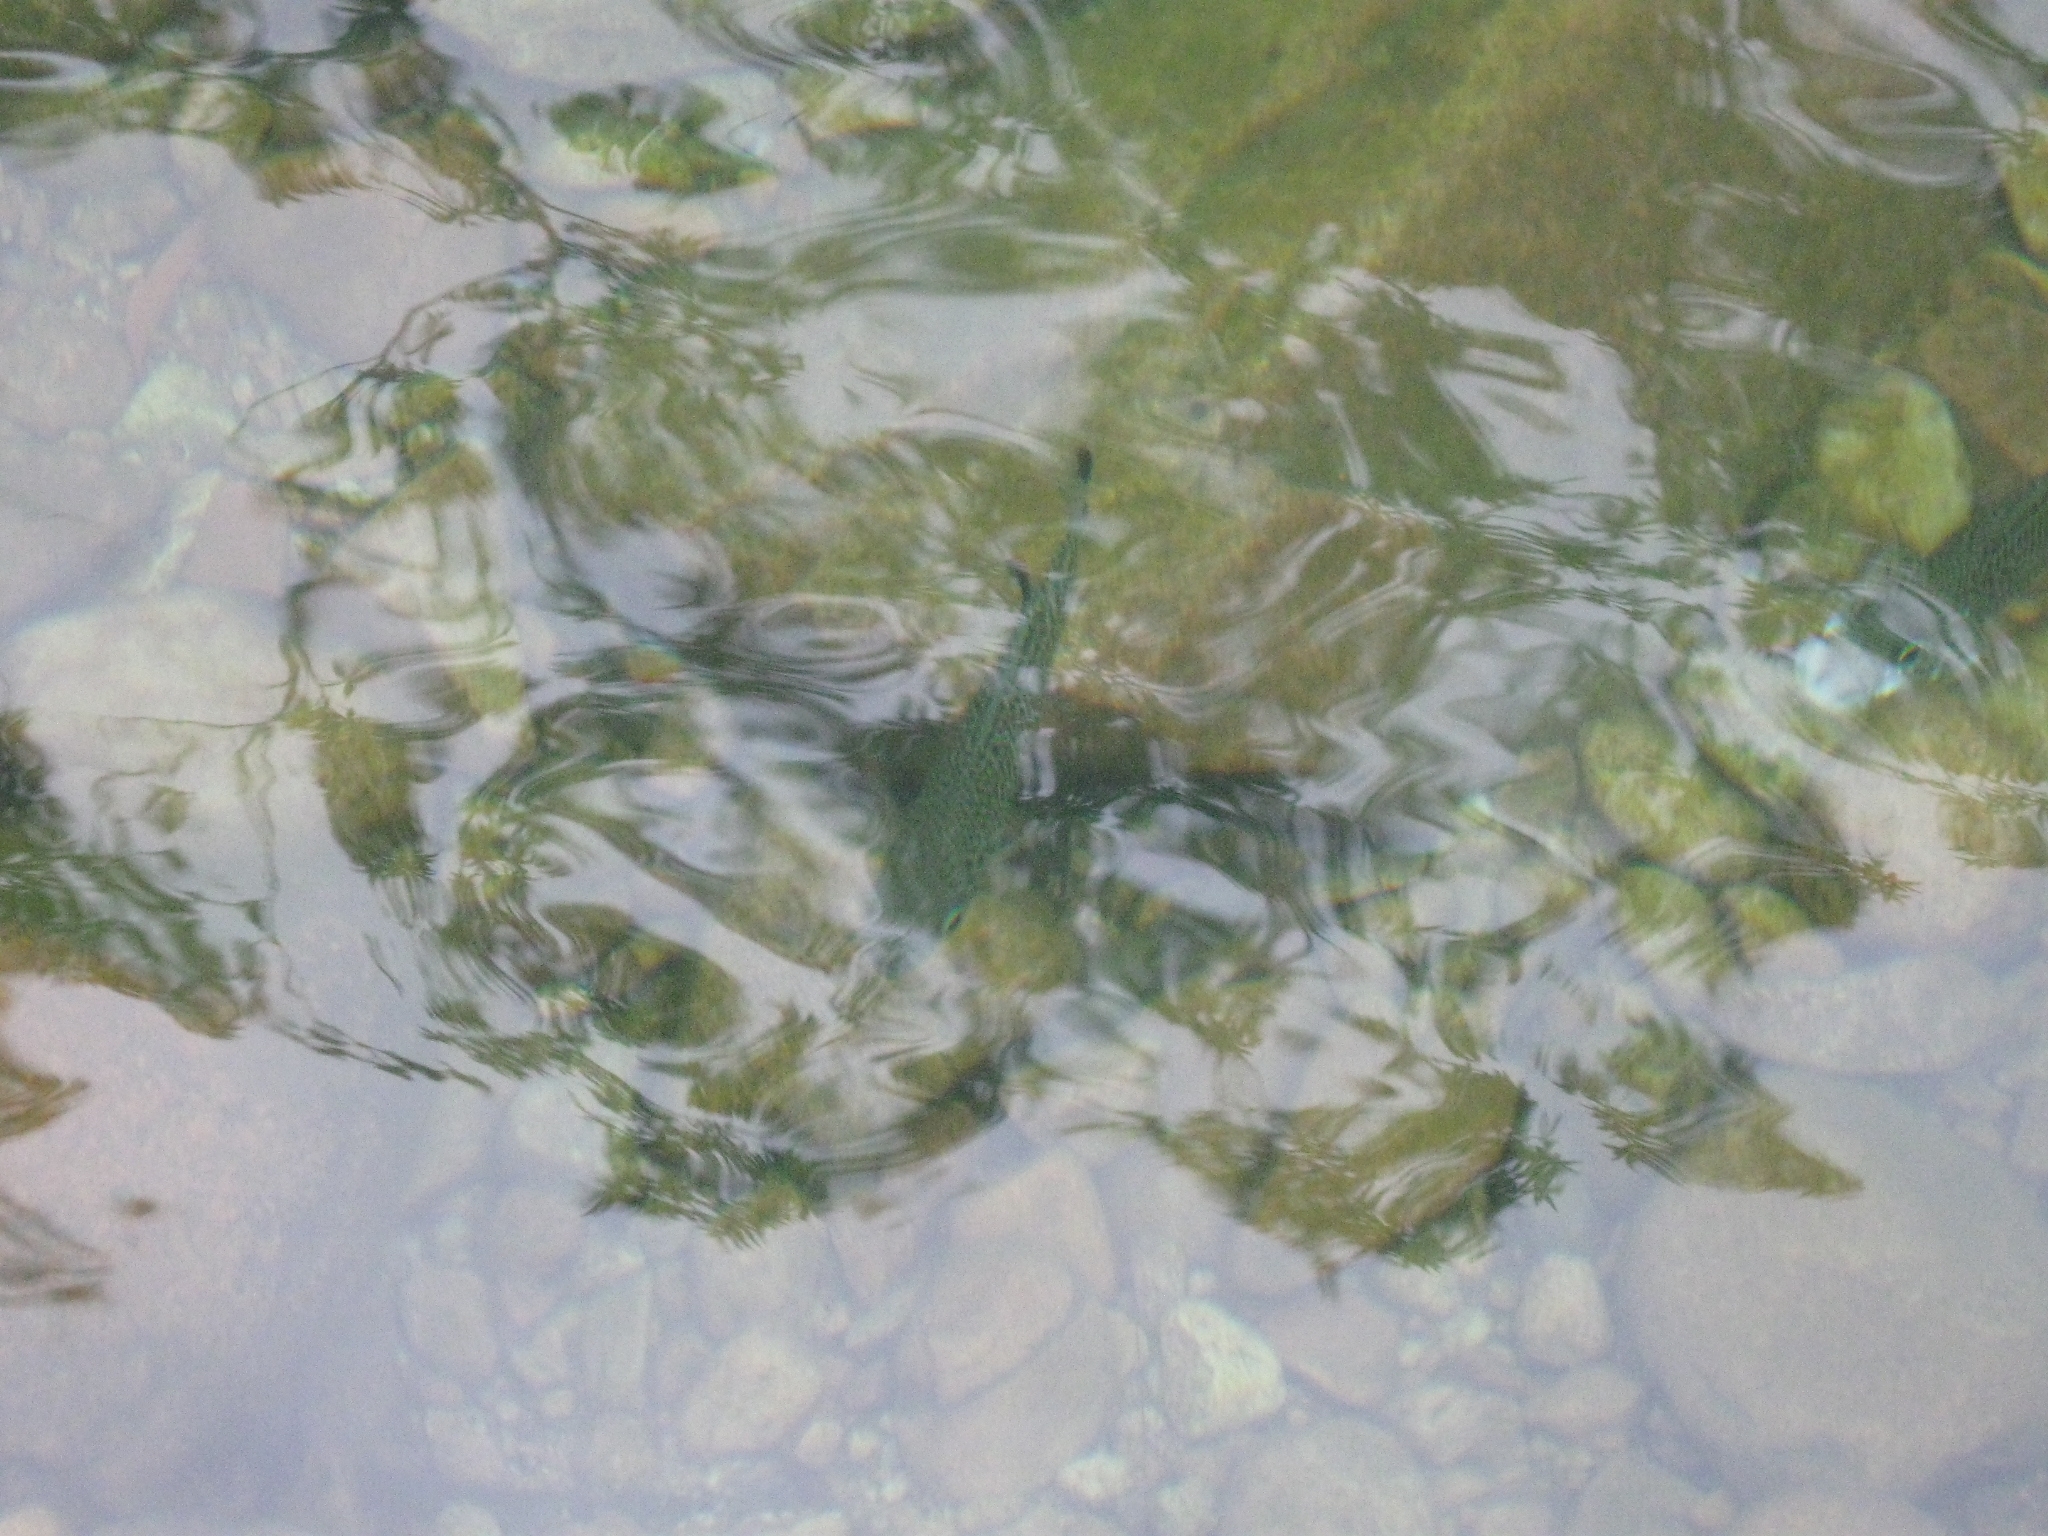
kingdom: Animalia
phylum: Chordata
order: Perciformes
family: Kuhliidae
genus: Kuhlia
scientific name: Kuhlia rupestris
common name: Rock flagtail
